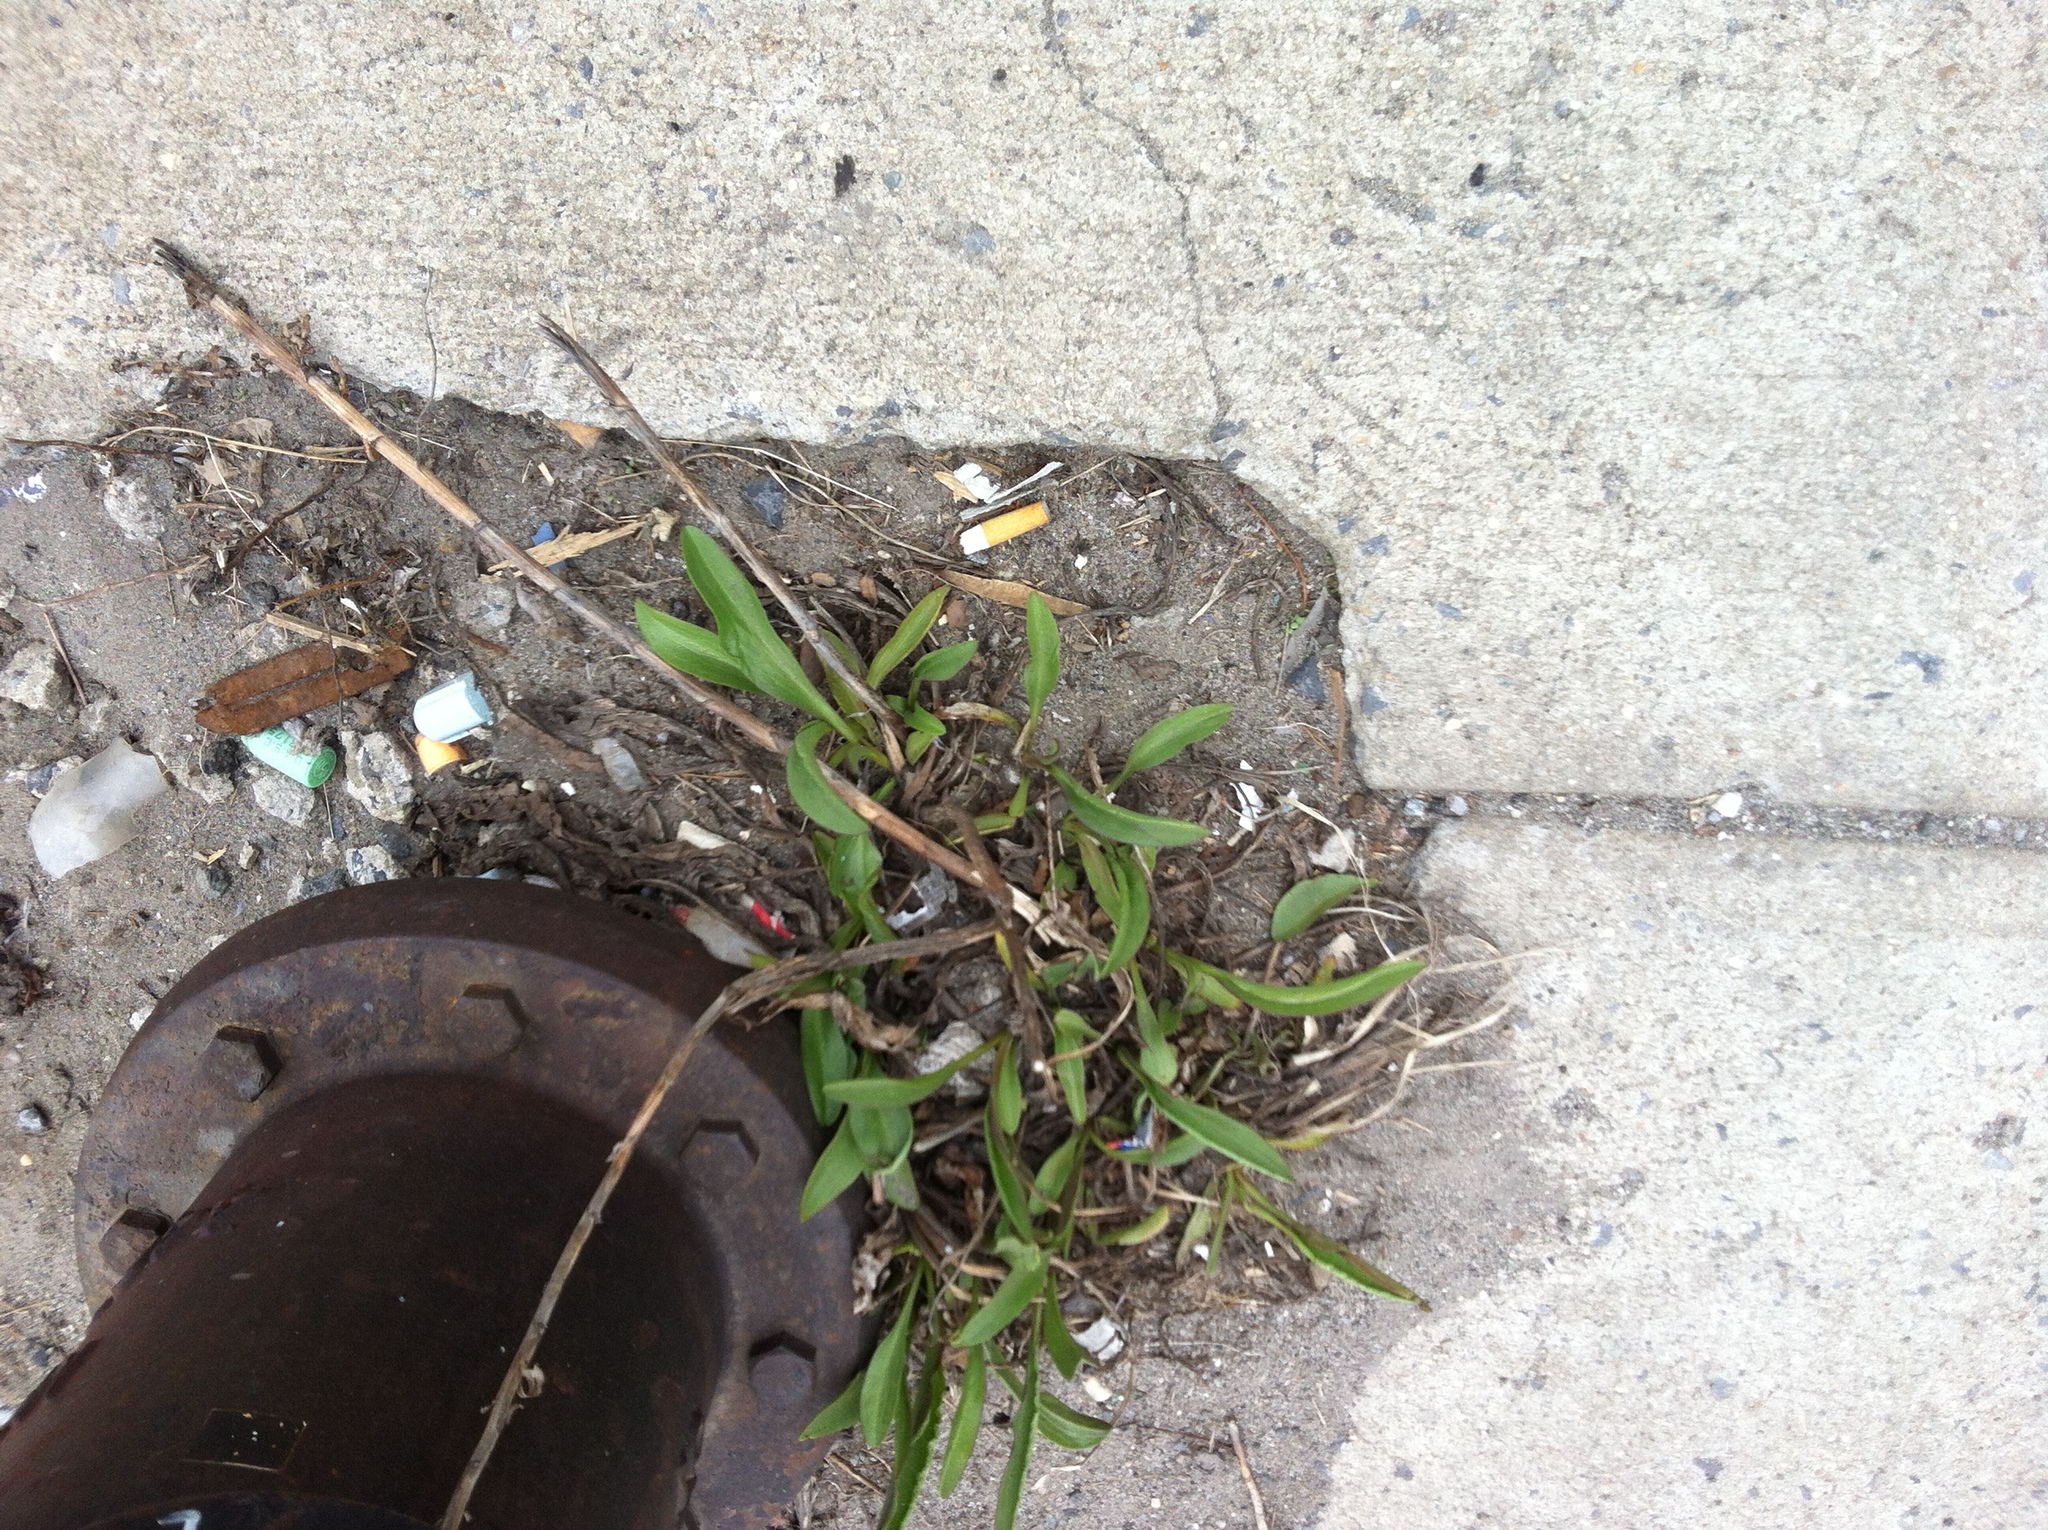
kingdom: Plantae
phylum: Tracheophyta
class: Magnoliopsida
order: Asterales
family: Asteraceae
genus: Solidago
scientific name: Solidago sempervirens
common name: Salt-marsh goldenrod
